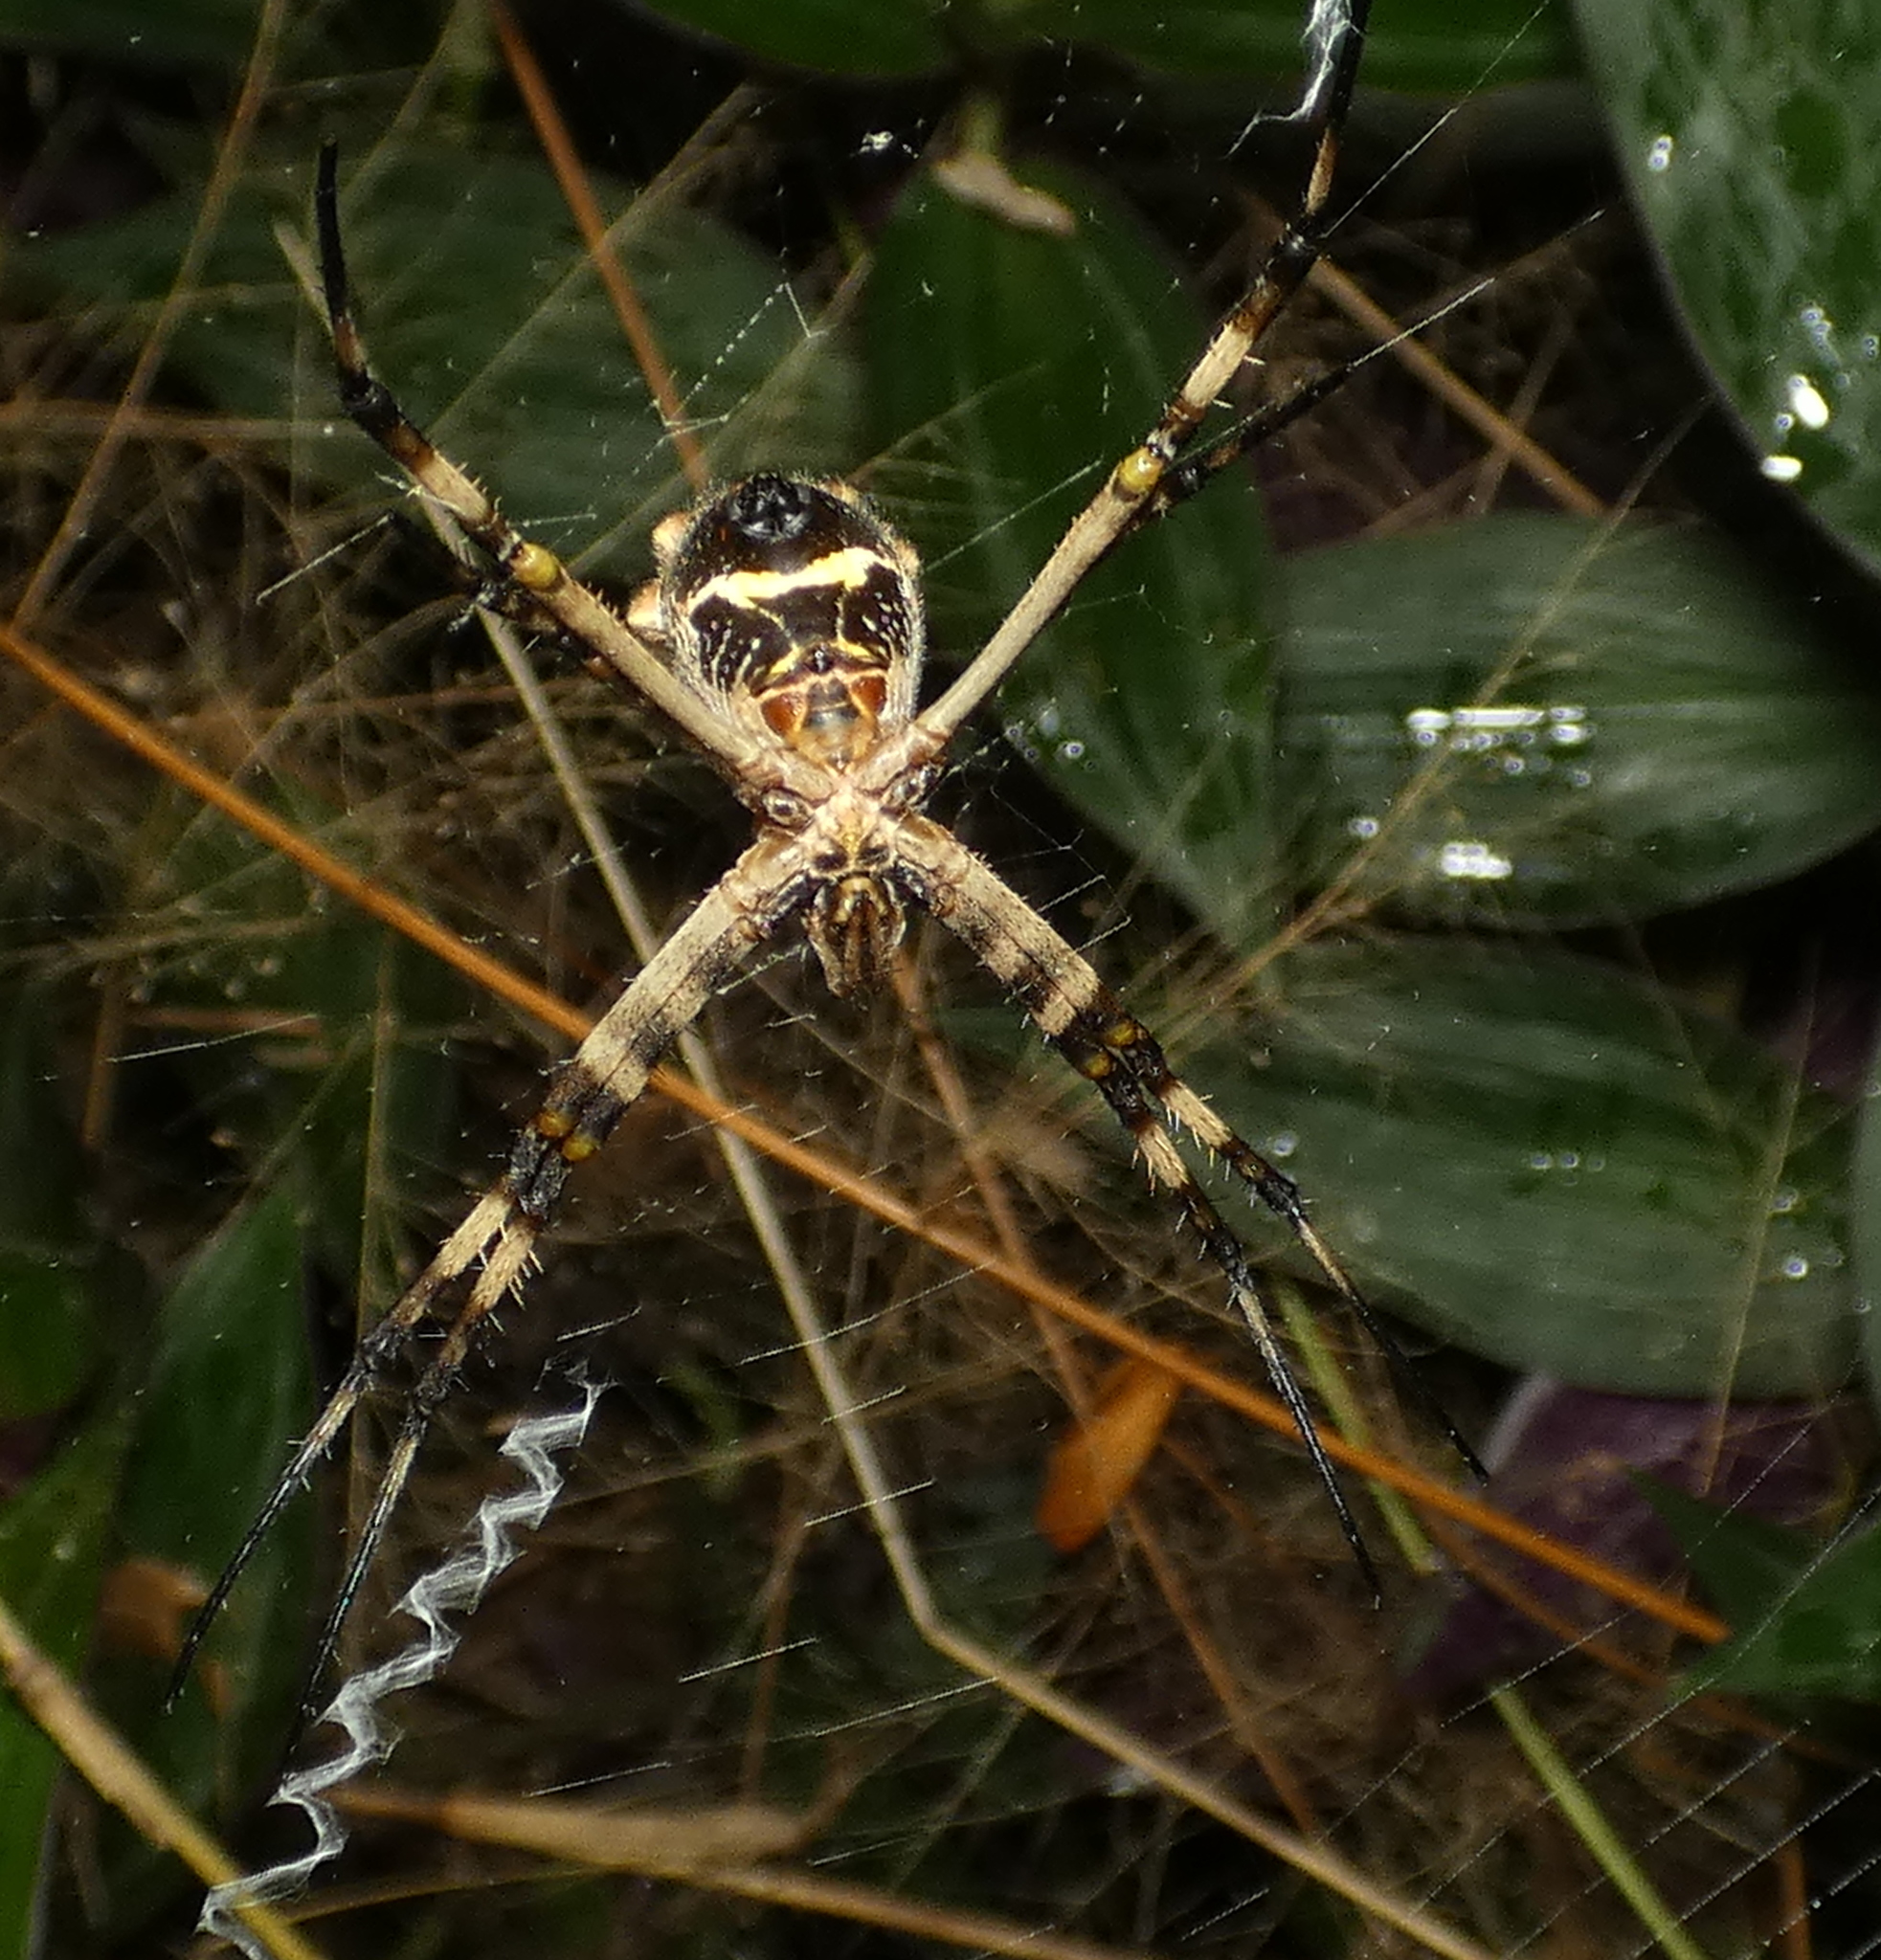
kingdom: Animalia
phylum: Arthropoda
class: Arachnida
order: Araneae
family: Araneidae
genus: Argiope
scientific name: Argiope argentata
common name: Orb weavers
